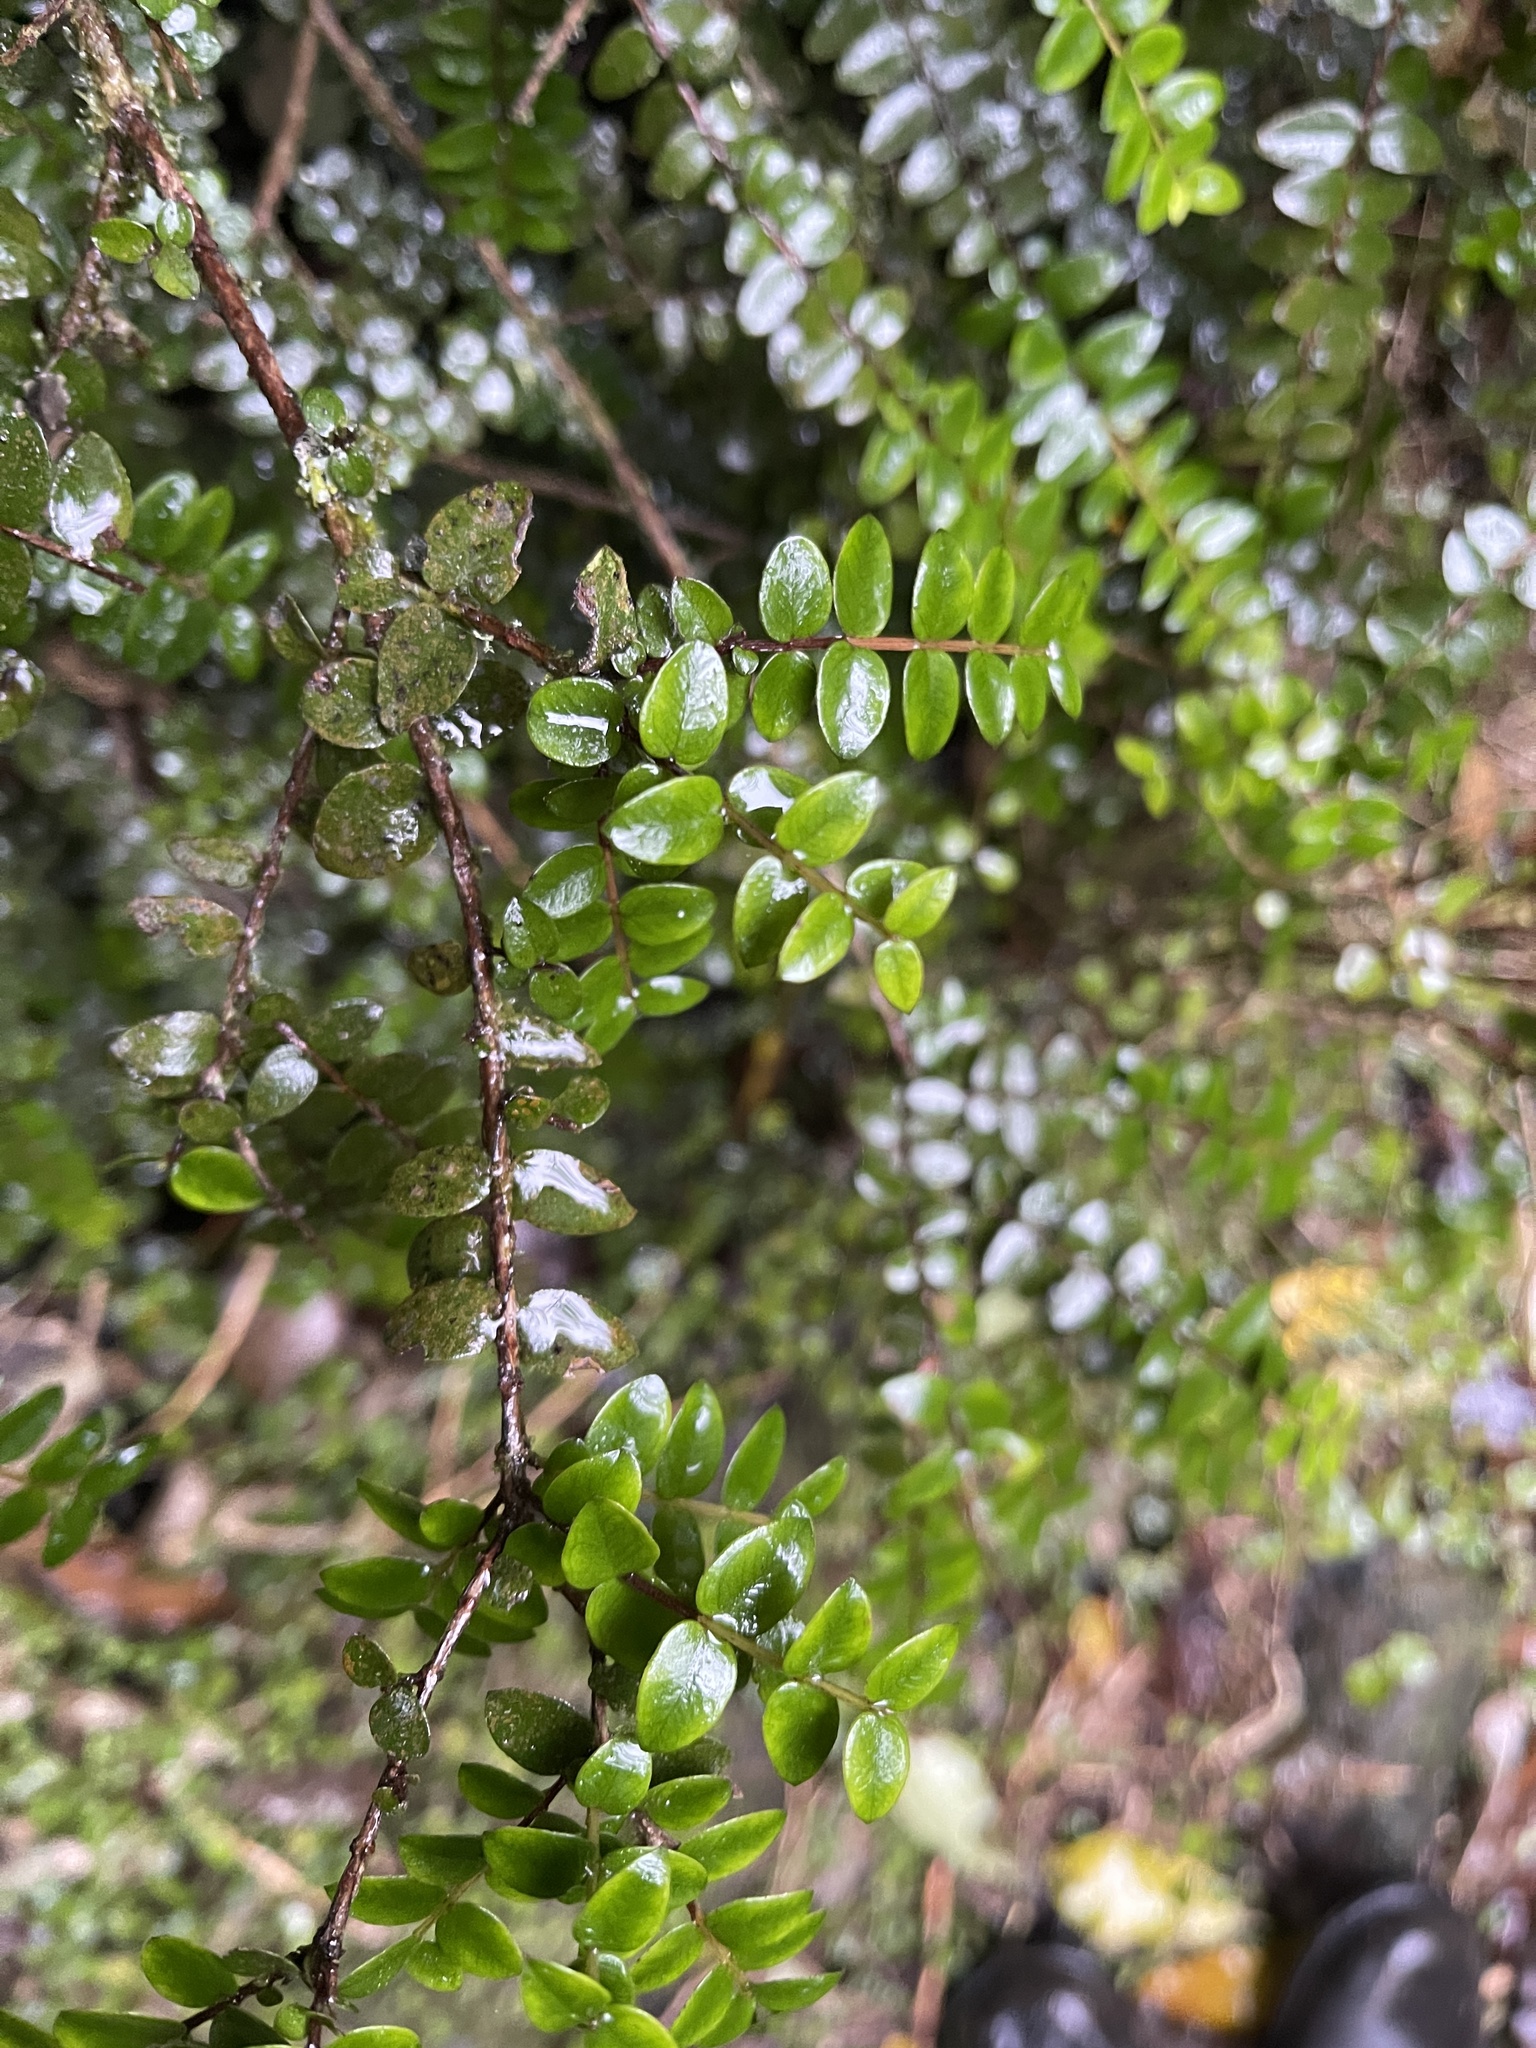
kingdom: Plantae
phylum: Tracheophyta
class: Magnoliopsida
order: Myrtales
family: Myrtaceae
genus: Metrosideros
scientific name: Metrosideros diffusa
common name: Small ratavine
